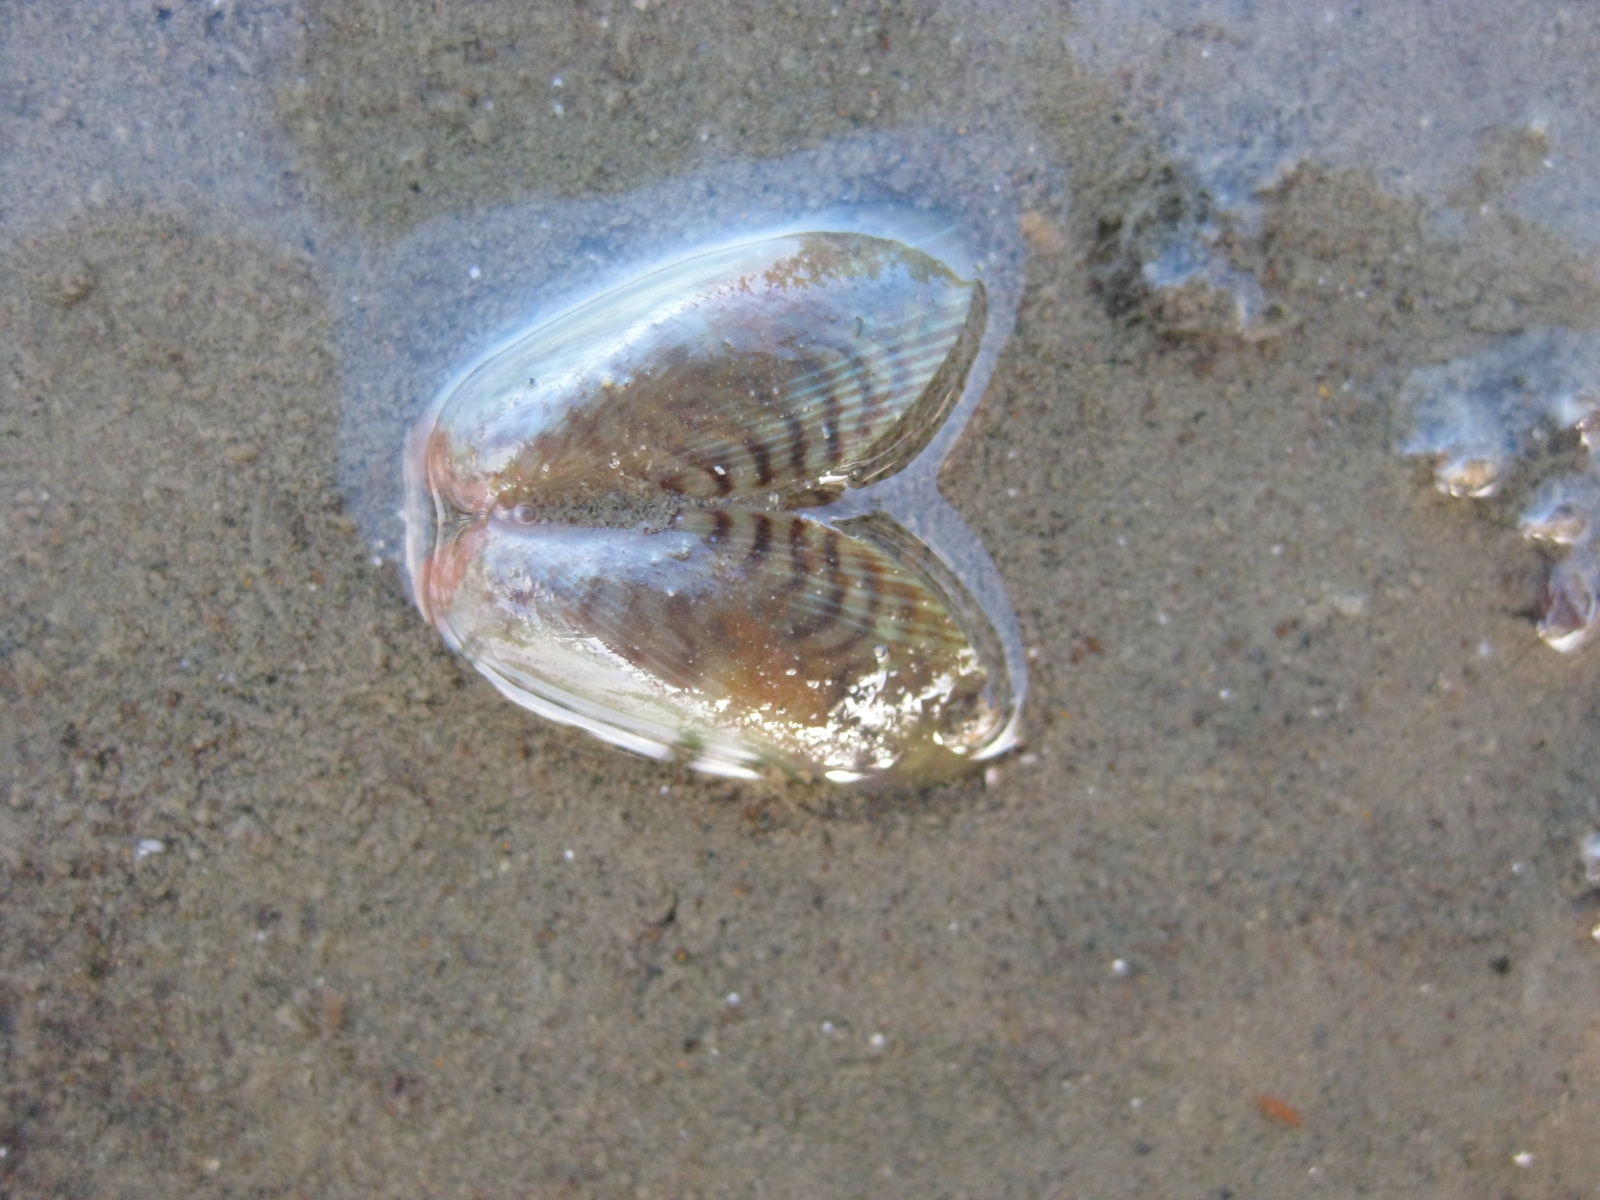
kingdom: Animalia
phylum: Mollusca
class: Bivalvia
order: Mytilida
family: Mytilidae
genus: Arcuatula
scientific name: Arcuatula senhousia
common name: Asian mussel
